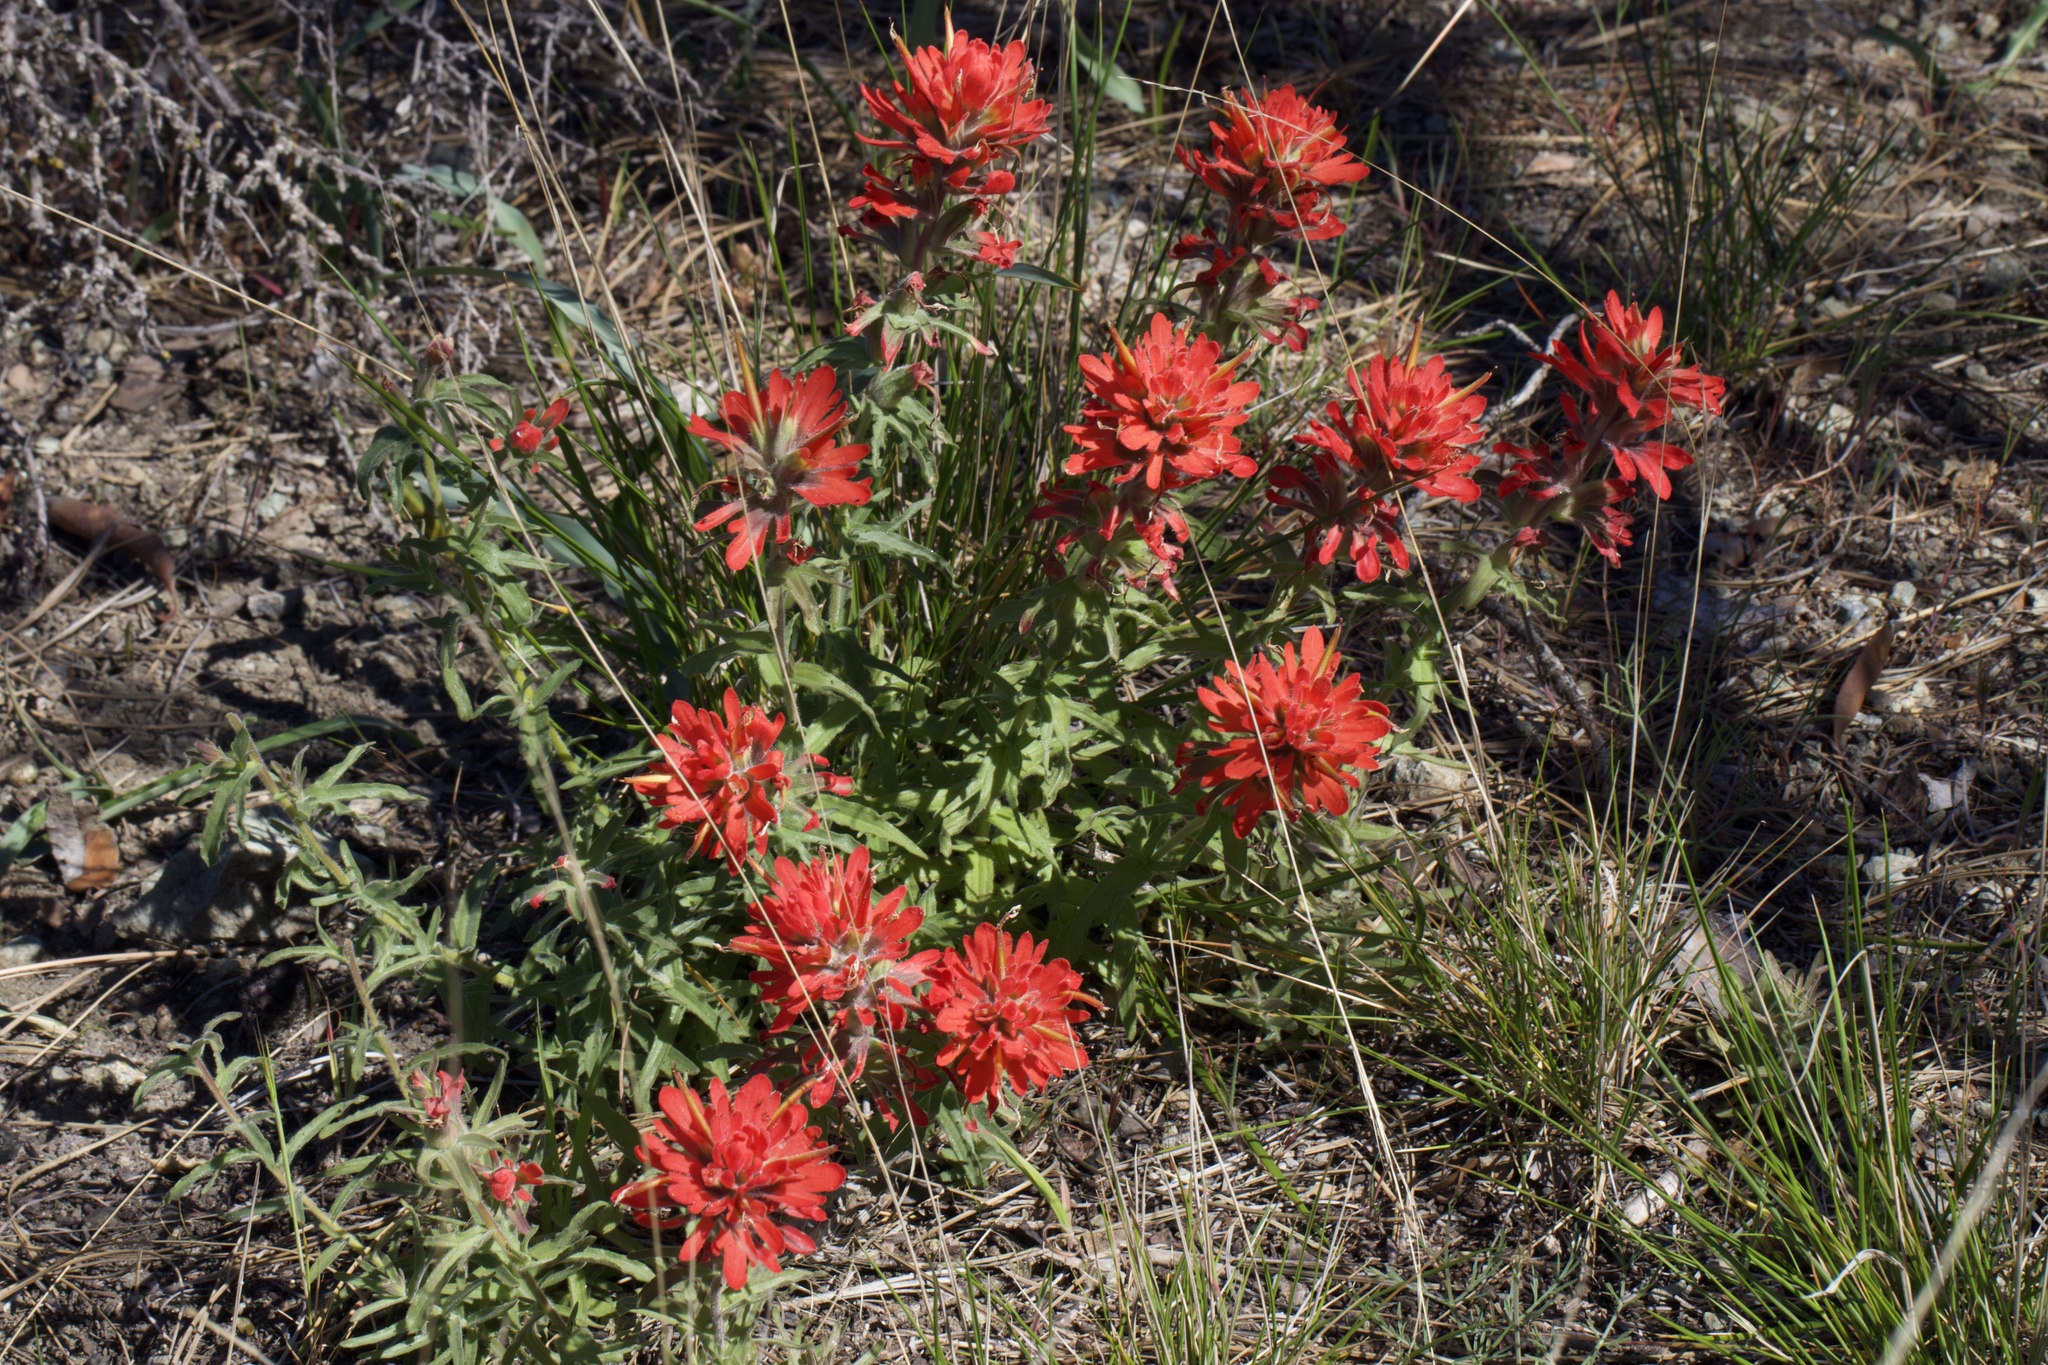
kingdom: Plantae
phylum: Tracheophyta
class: Magnoliopsida
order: Lamiales
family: Orobanchaceae
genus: Castilleja
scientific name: Castilleja martini
